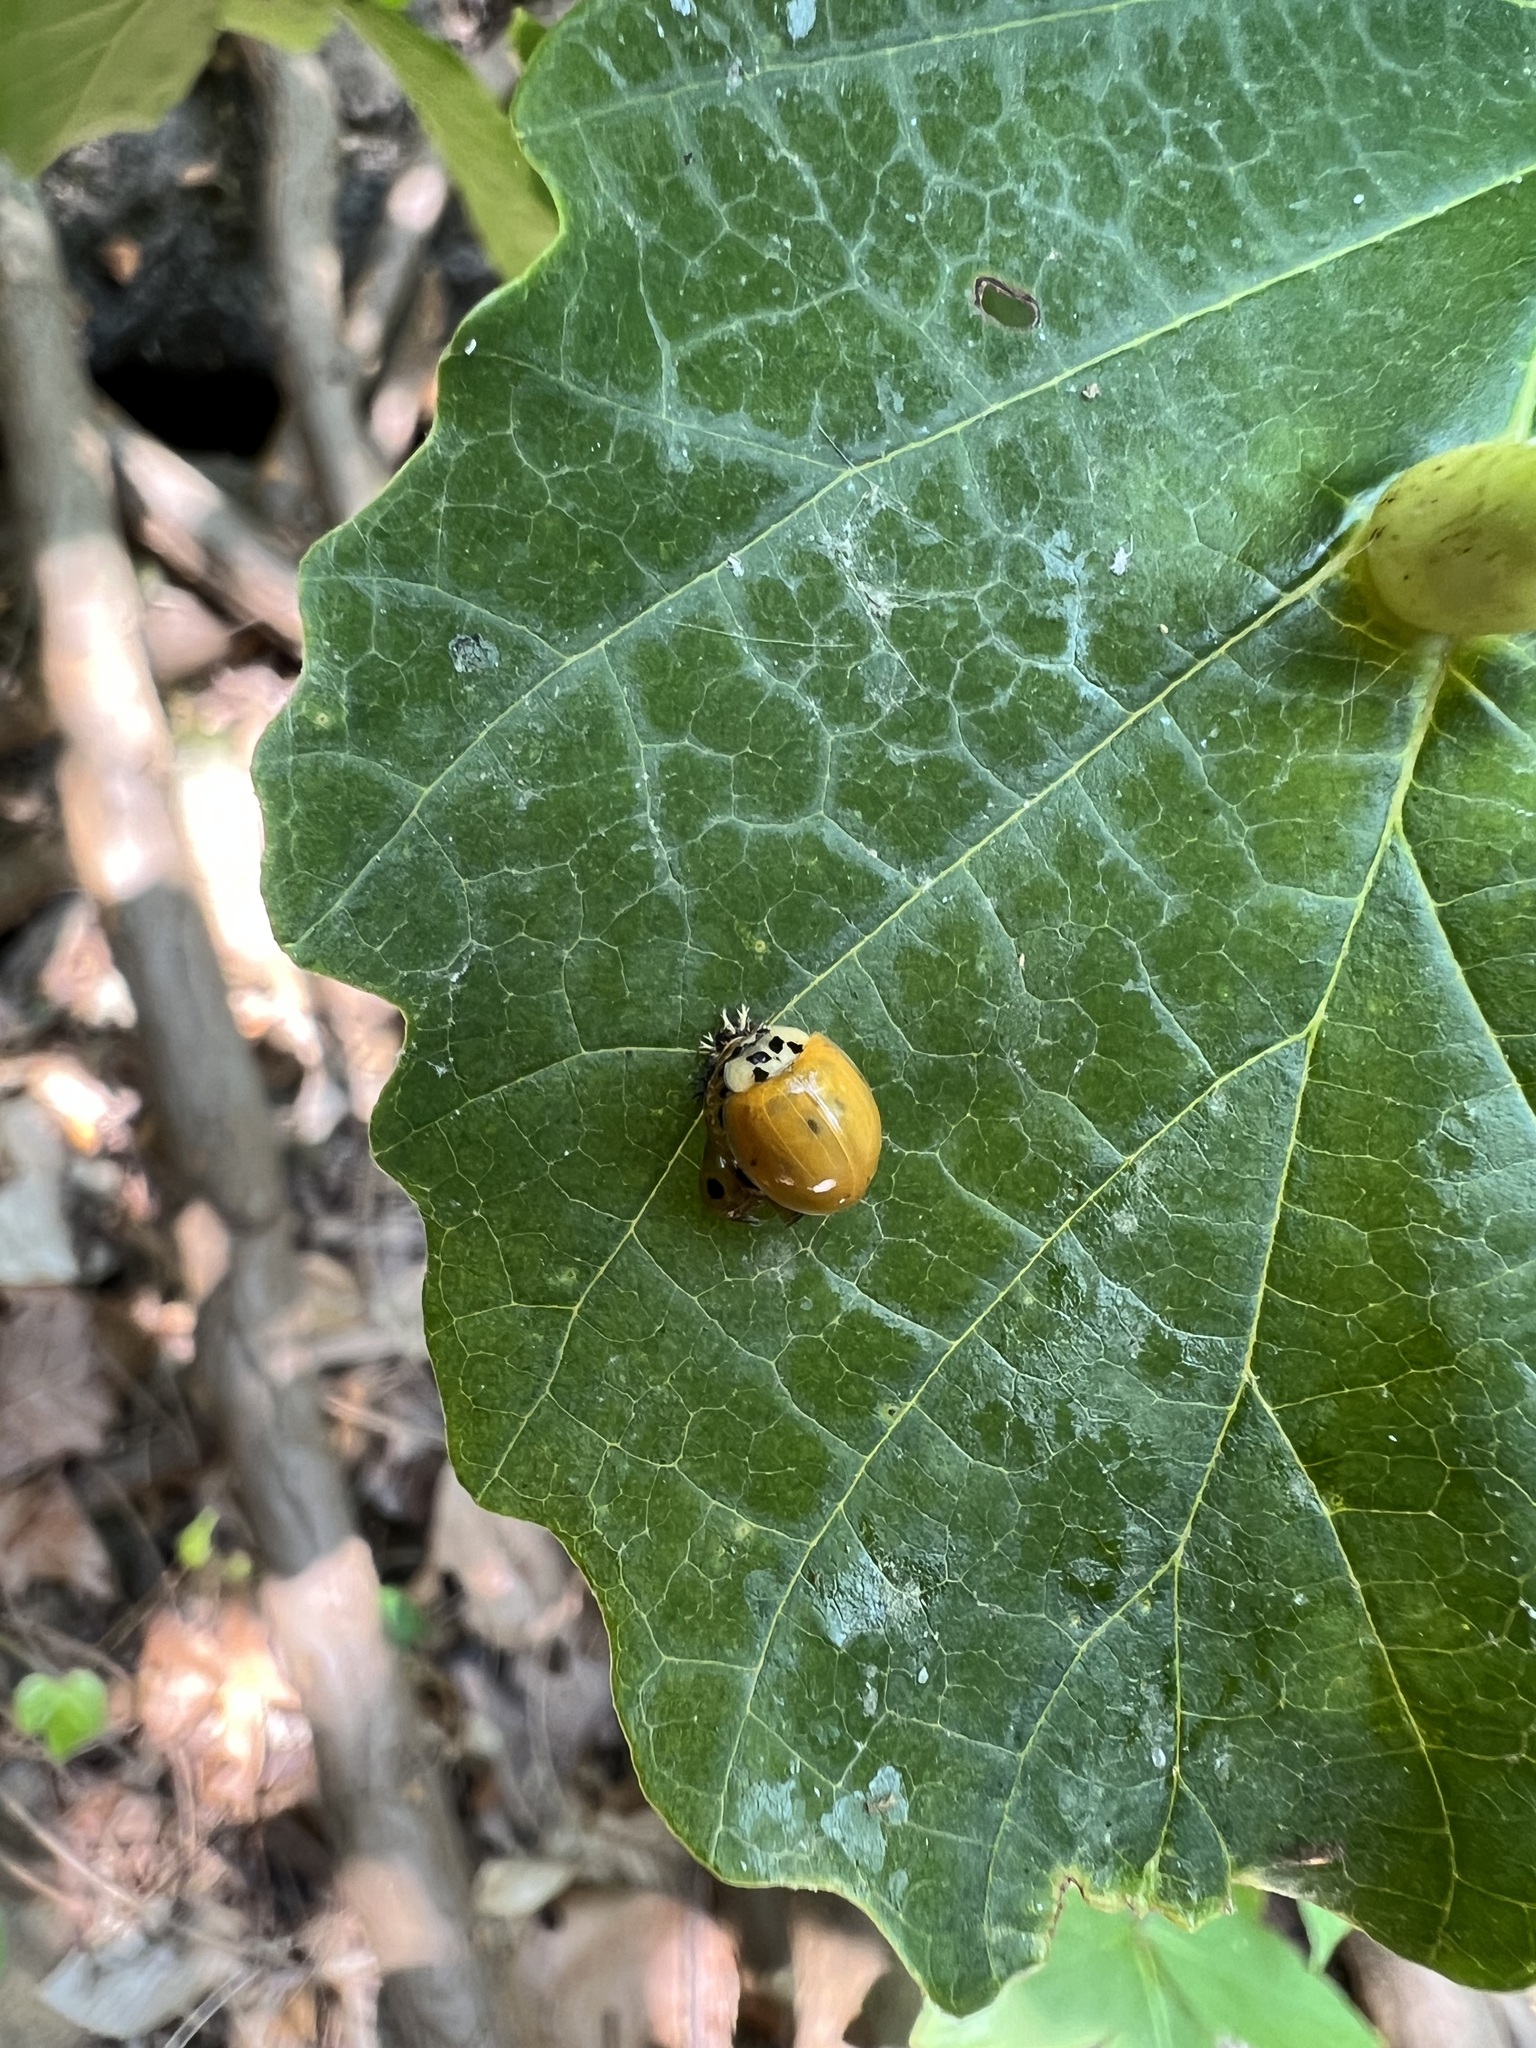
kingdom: Animalia
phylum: Arthropoda
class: Insecta
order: Coleoptera
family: Coccinellidae
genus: Harmonia
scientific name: Harmonia axyridis
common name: Harlequin ladybird
